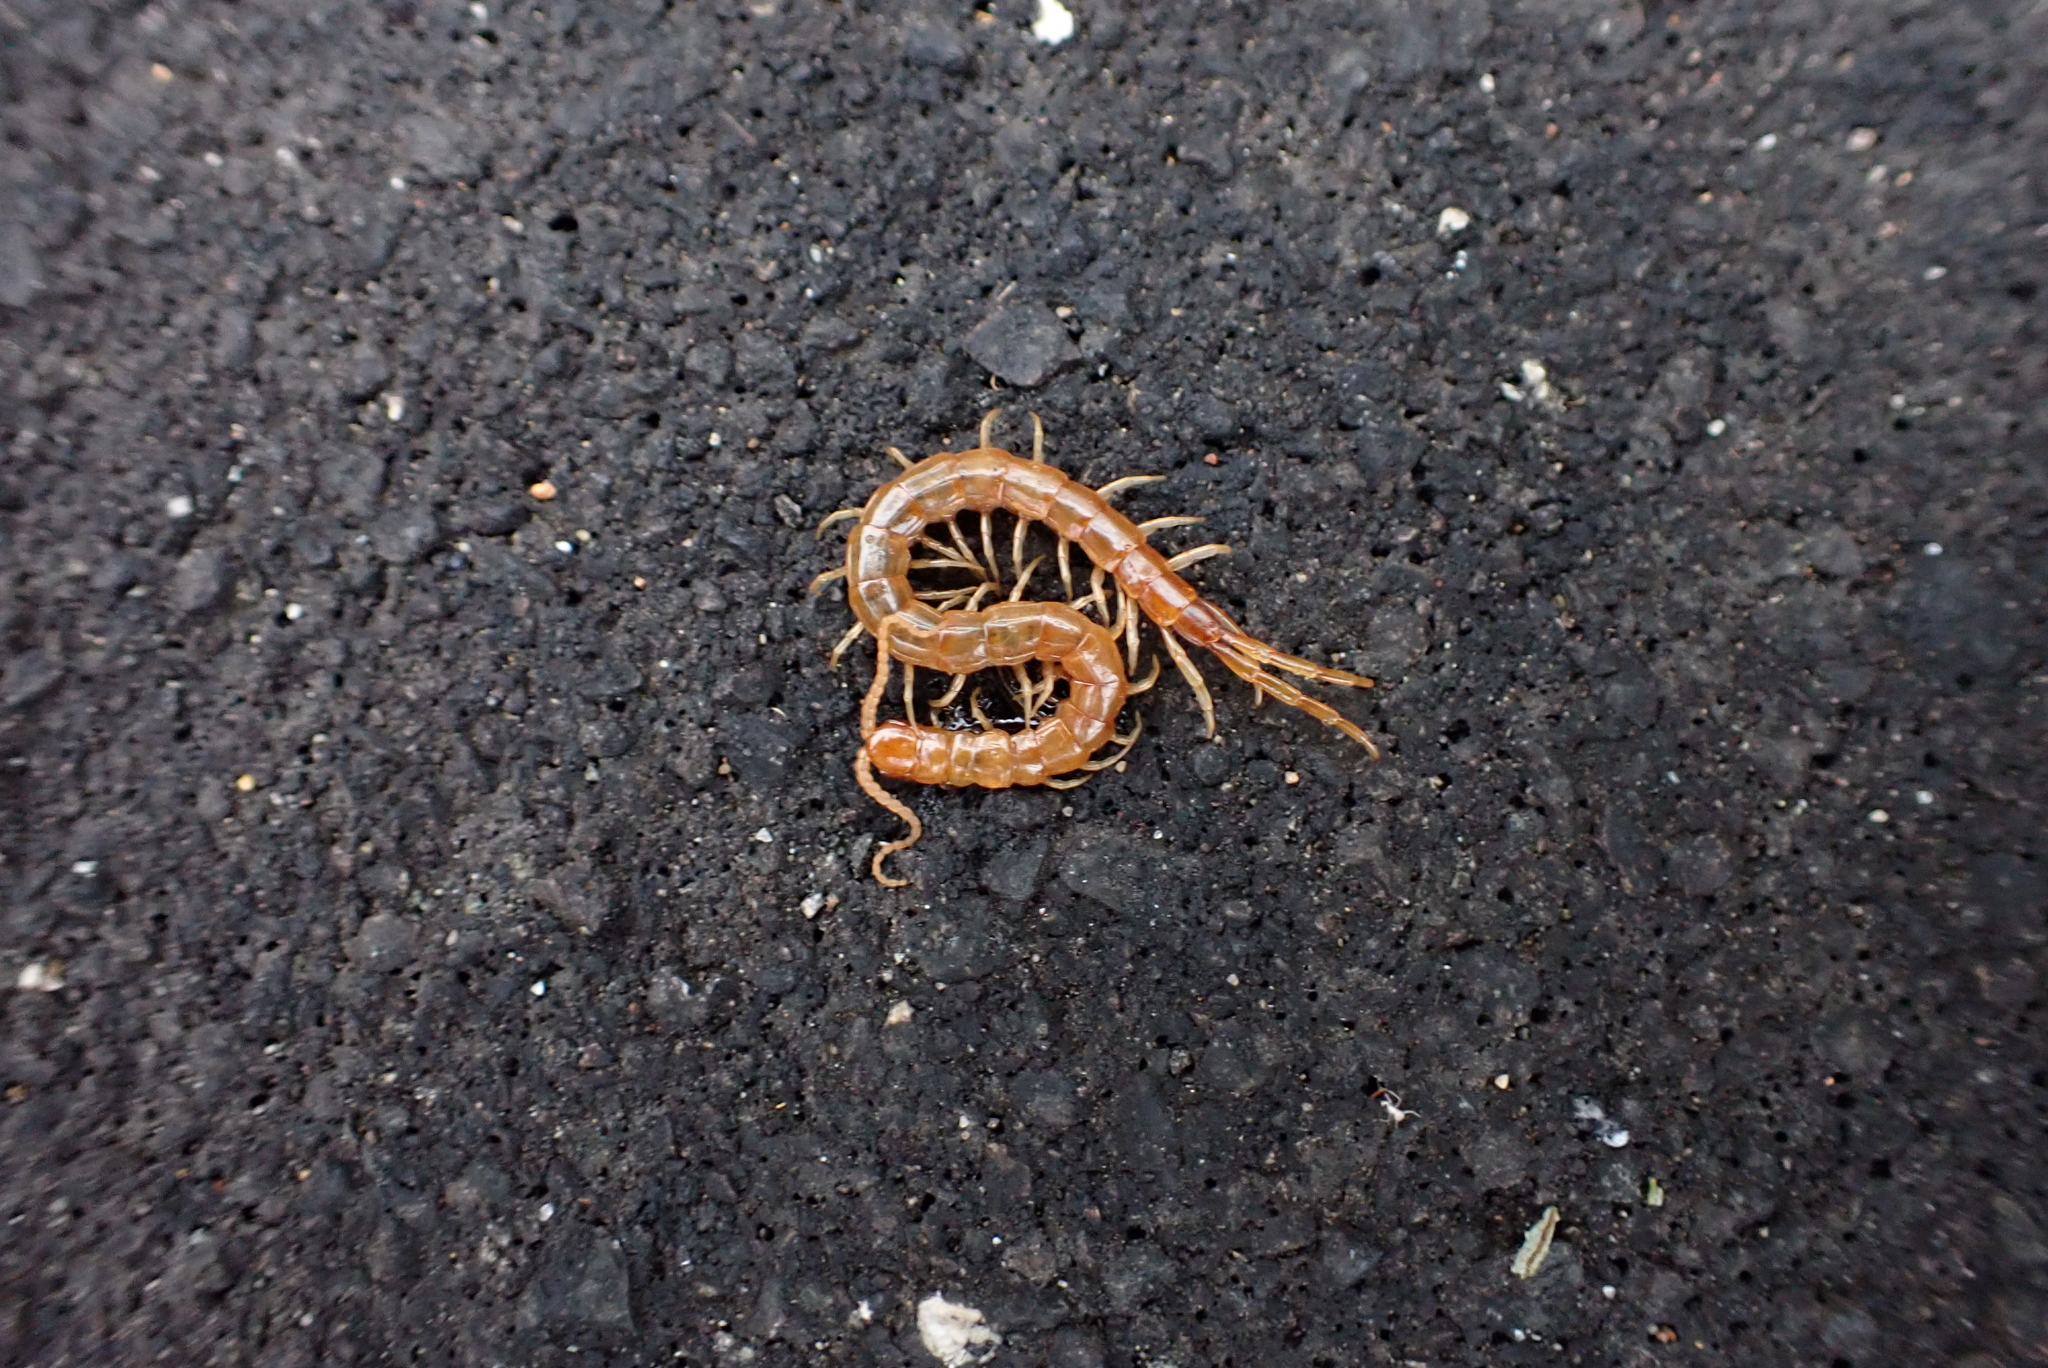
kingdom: Animalia
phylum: Arthropoda
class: Chilopoda
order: Scolopendromorpha
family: Scolopocryptopidae
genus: Scolopocryptops
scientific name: Scolopocryptops gracilis
